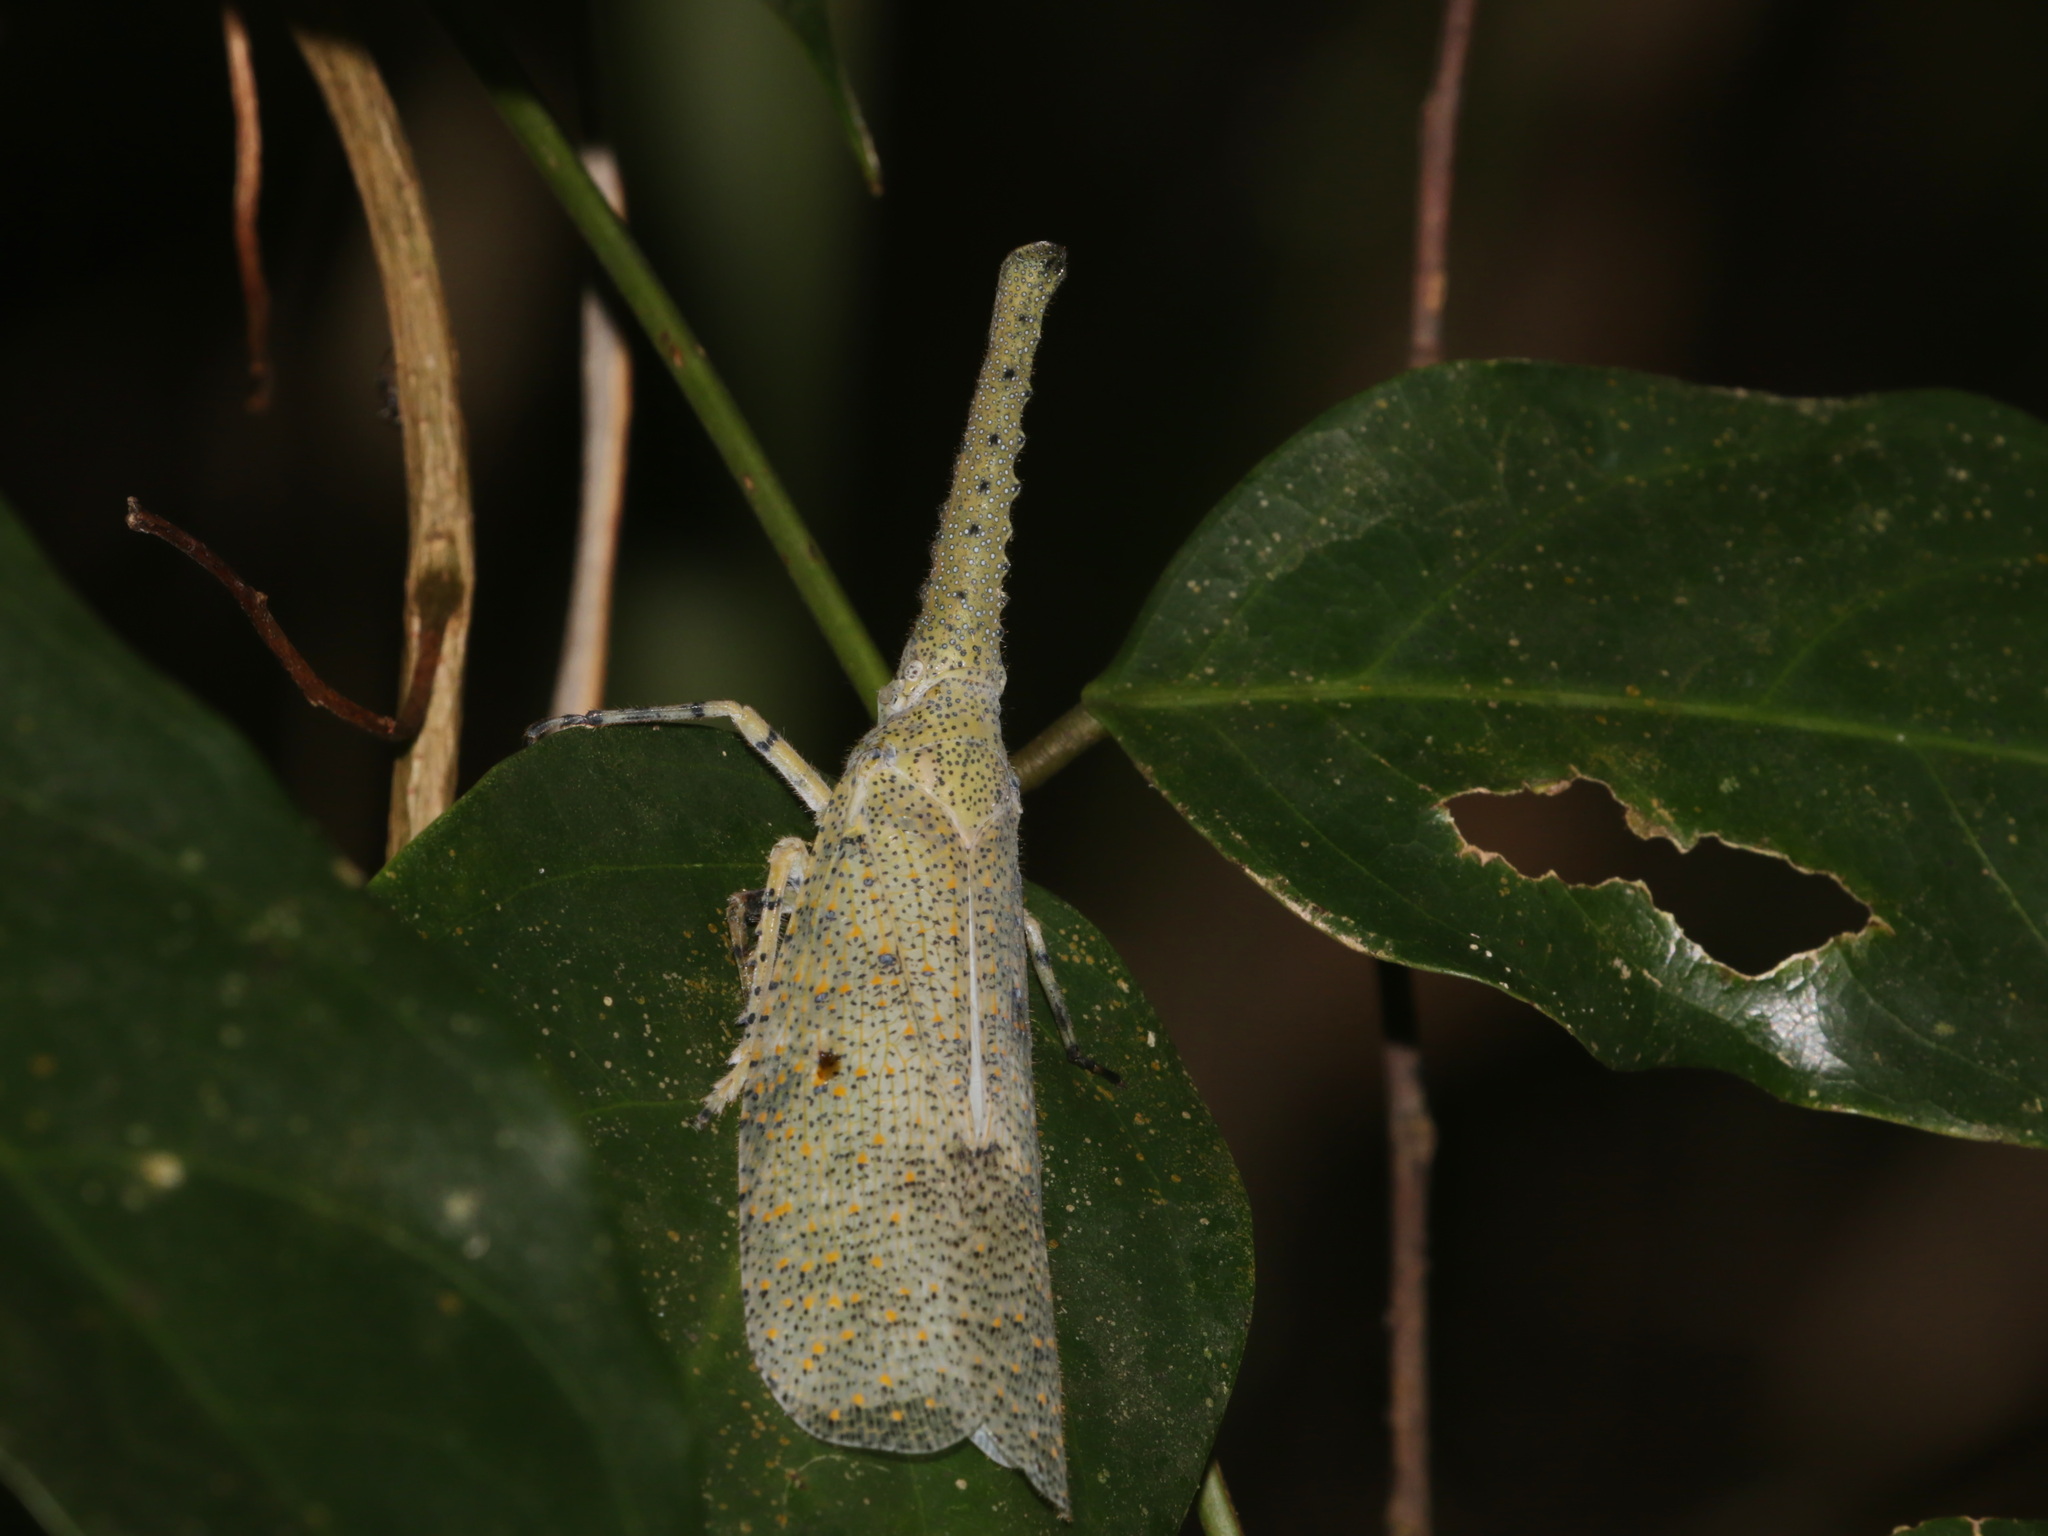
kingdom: Animalia
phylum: Arthropoda
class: Insecta
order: Hemiptera
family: Fulgoridae
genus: Zanna
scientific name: Zanna nobilis
